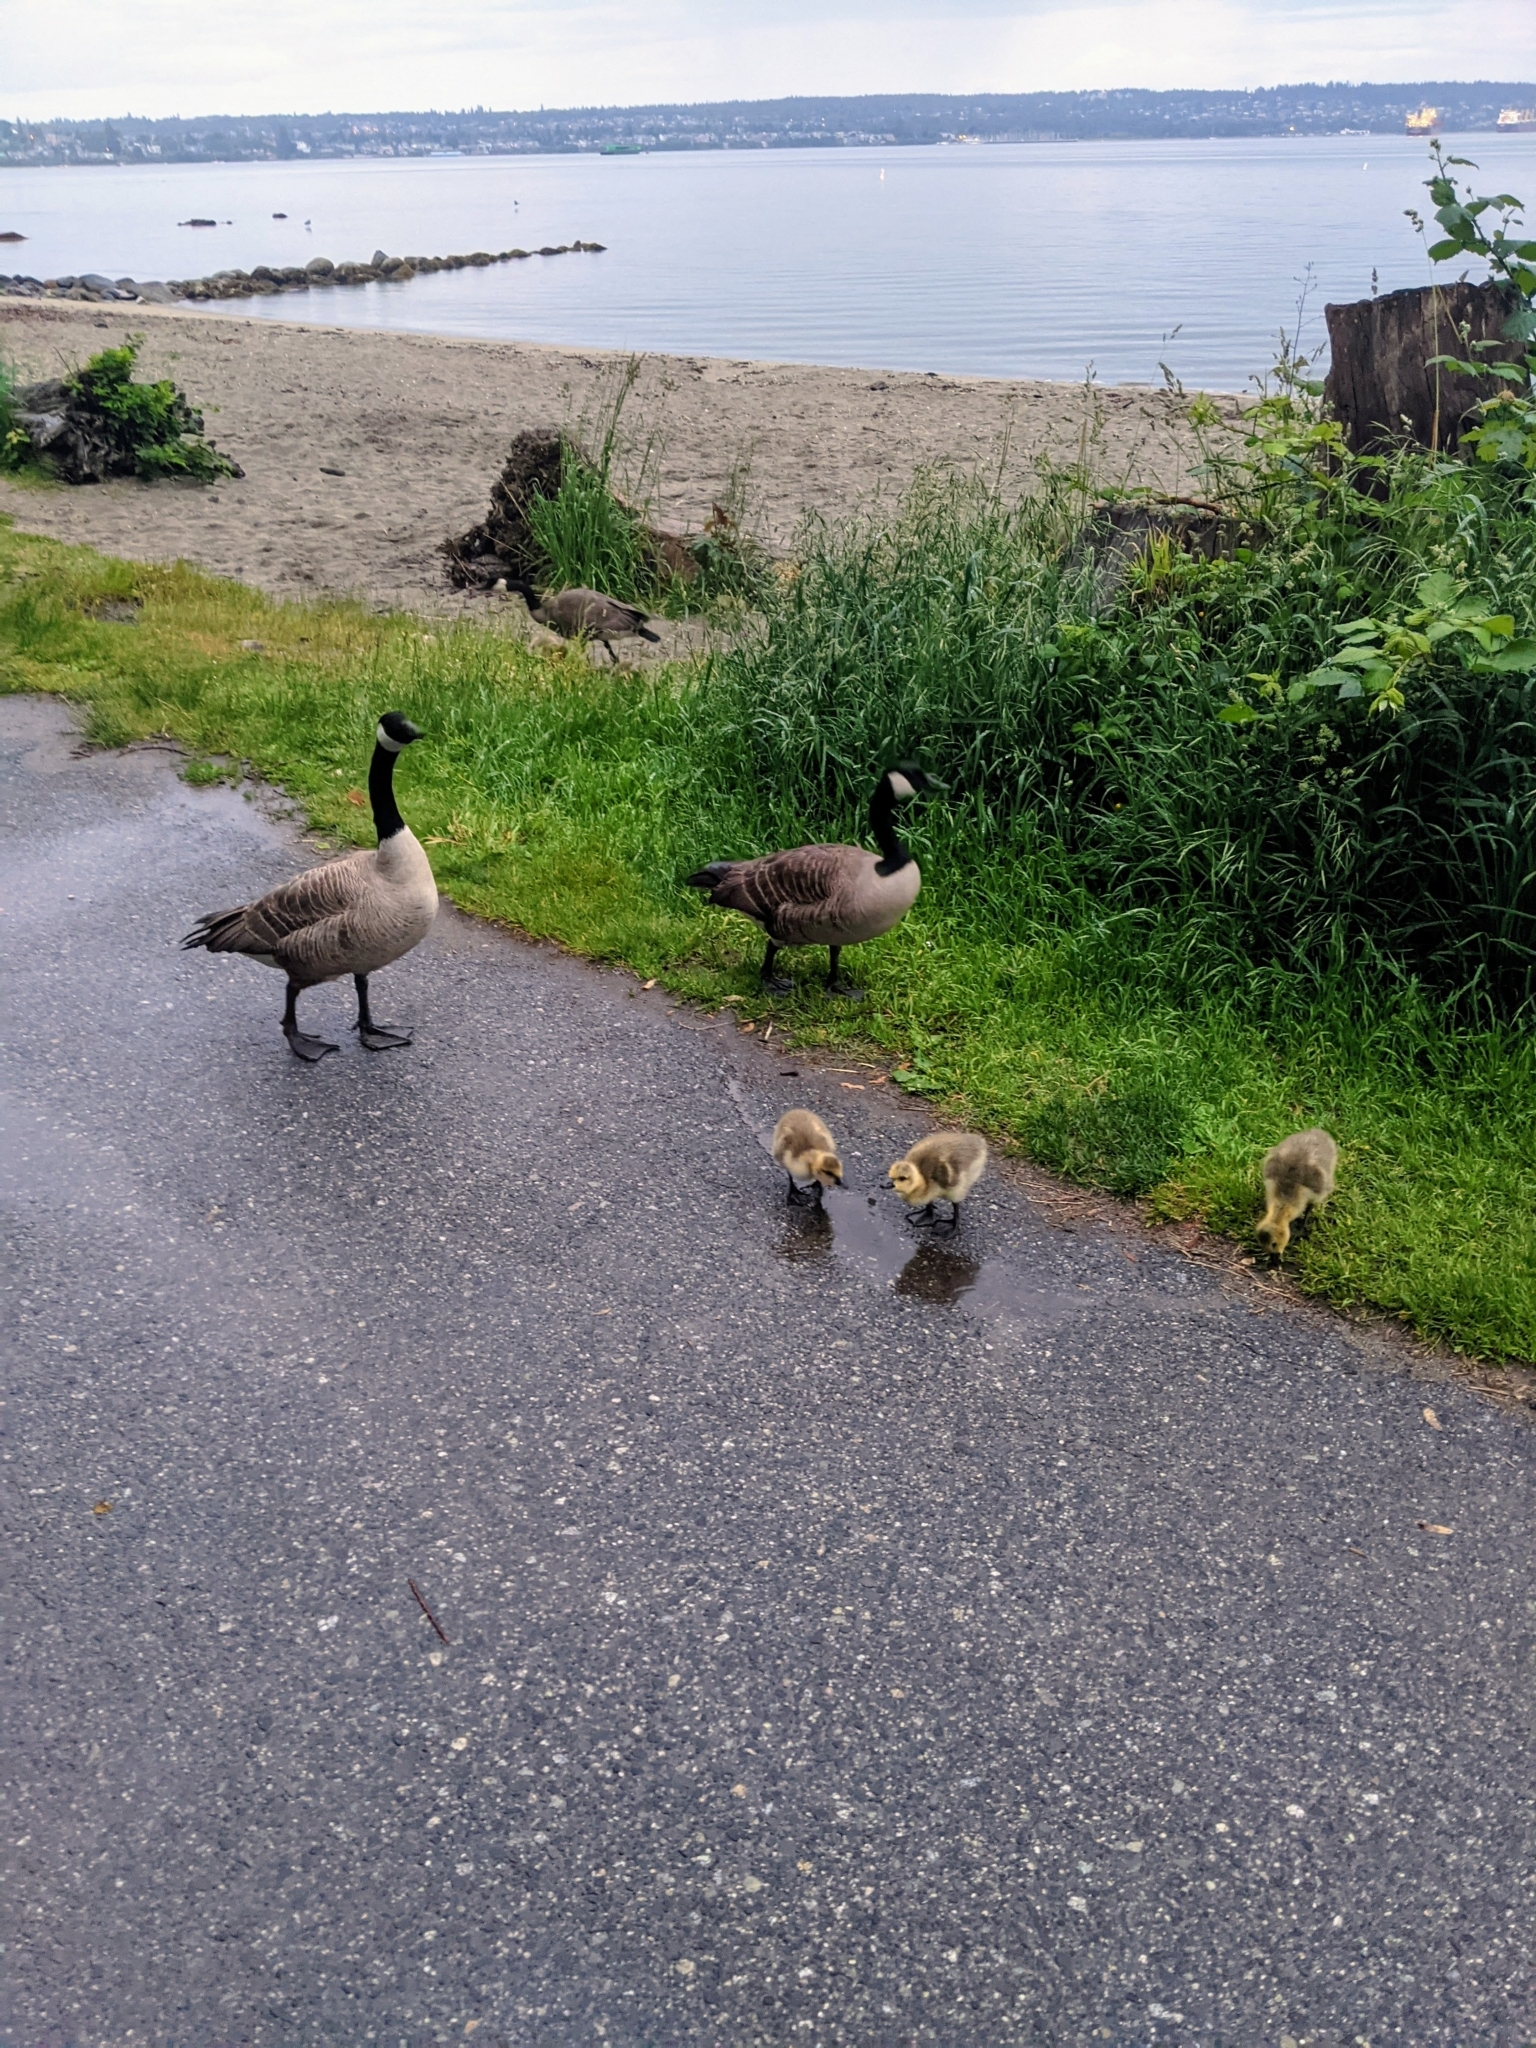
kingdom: Animalia
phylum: Chordata
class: Aves
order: Anseriformes
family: Anatidae
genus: Branta
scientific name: Branta canadensis
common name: Canada goose
